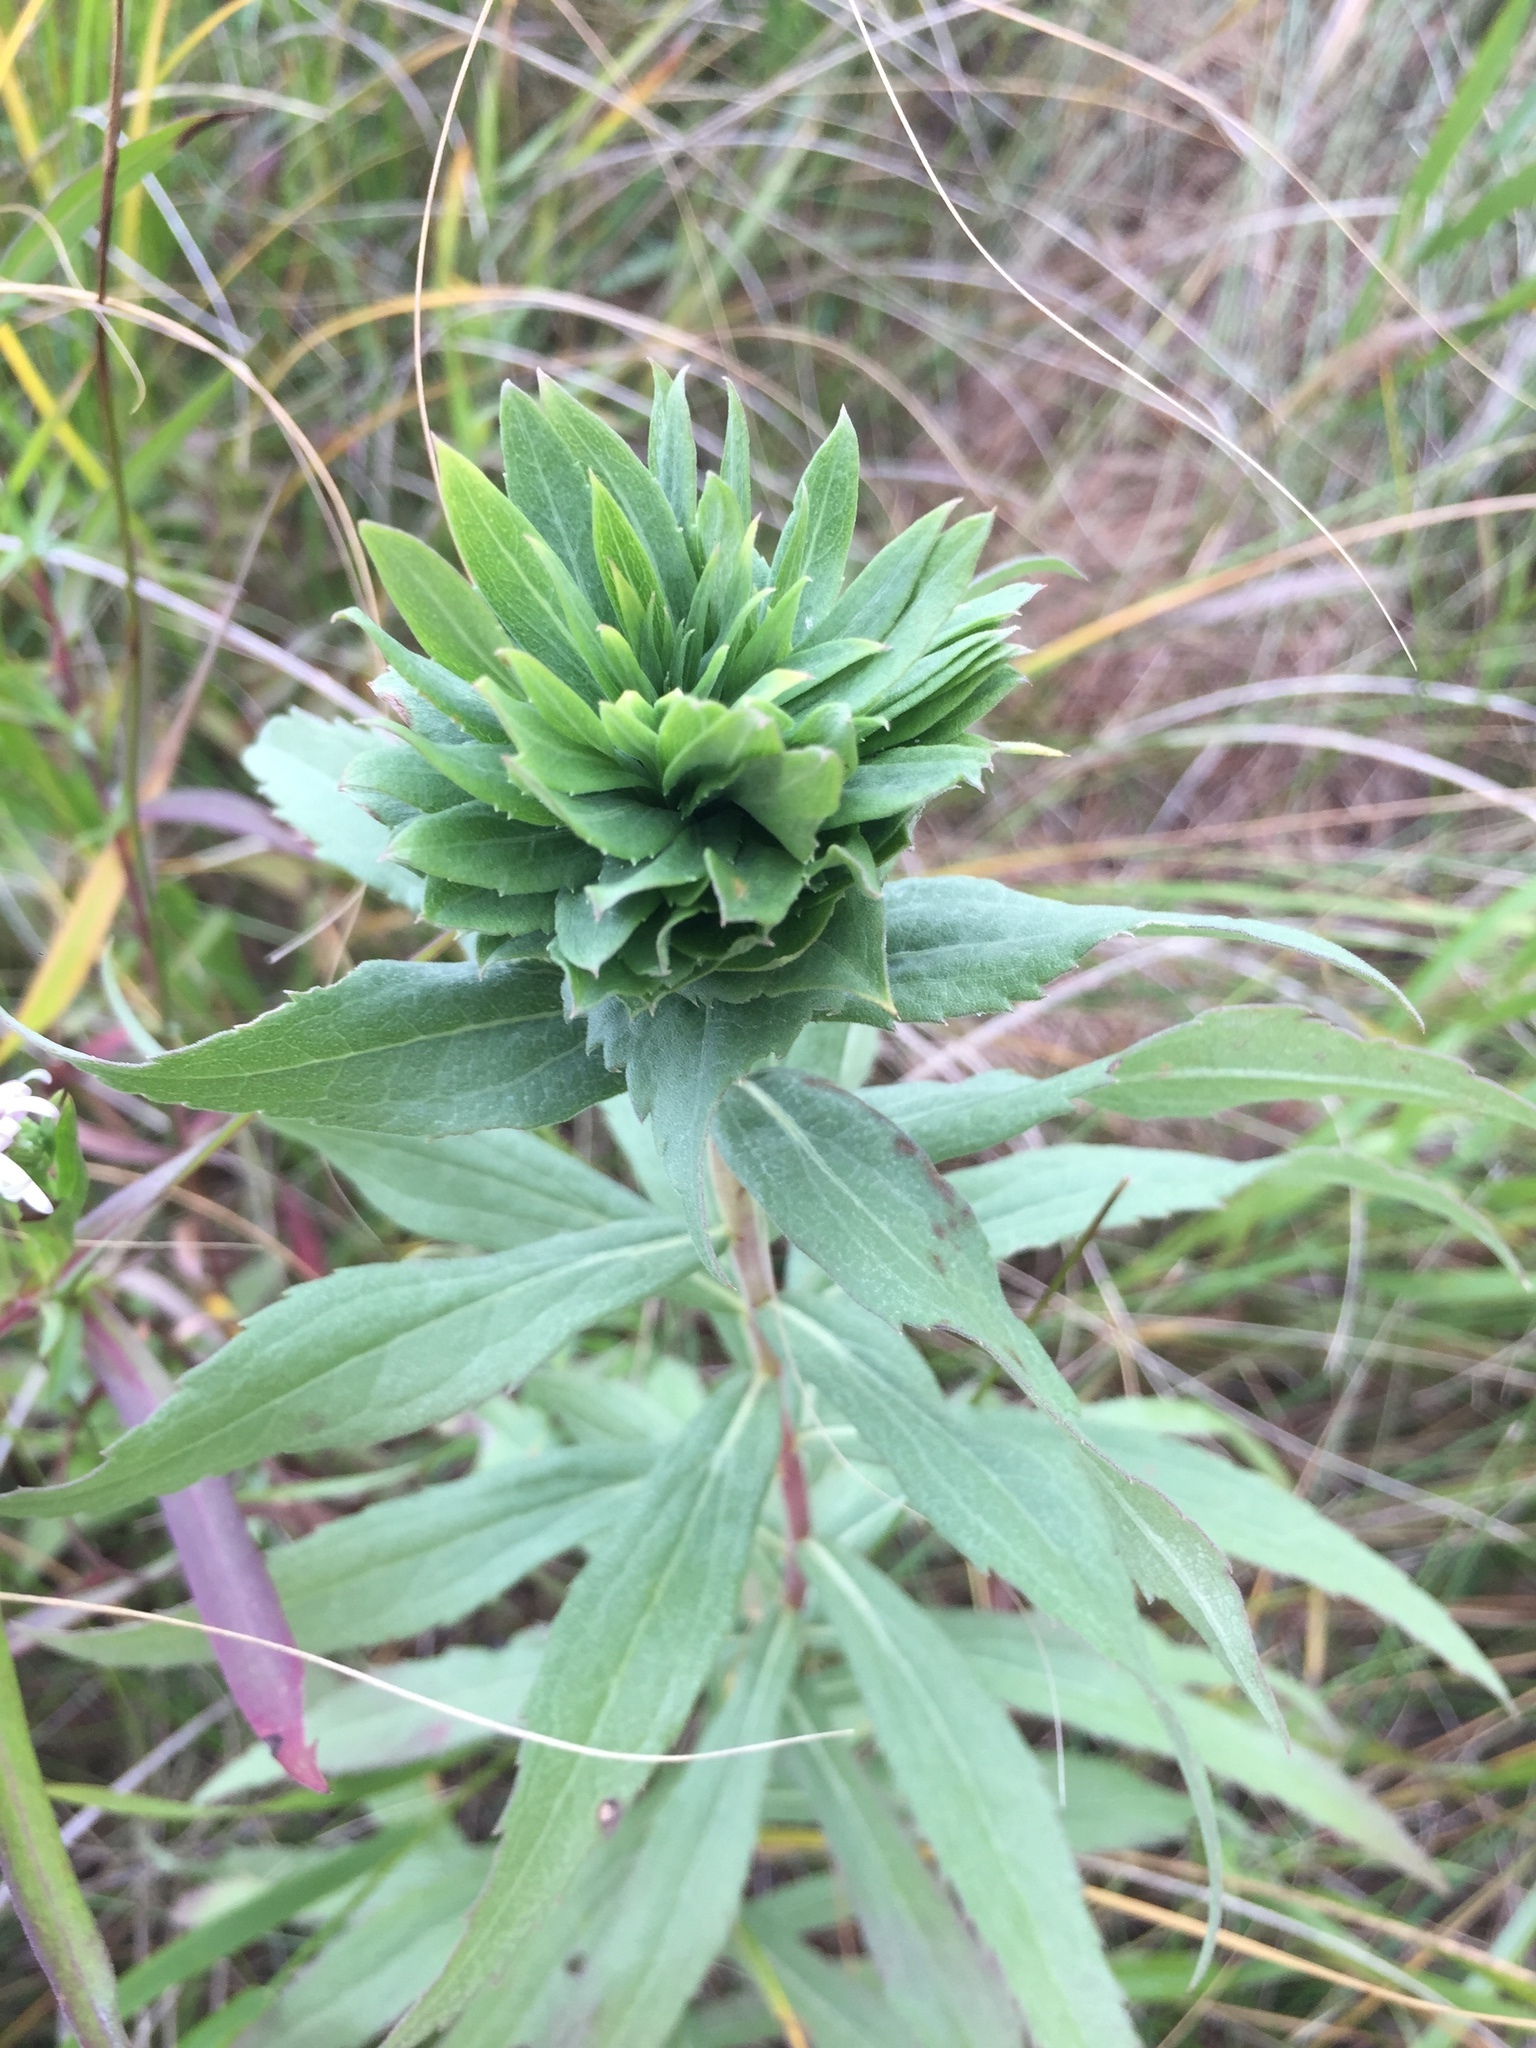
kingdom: Animalia
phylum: Arthropoda
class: Insecta
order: Diptera
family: Cecidomyiidae
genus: Rhopalomyia
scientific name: Rhopalomyia solidaginis
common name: Goldenrod bunch gall midge
